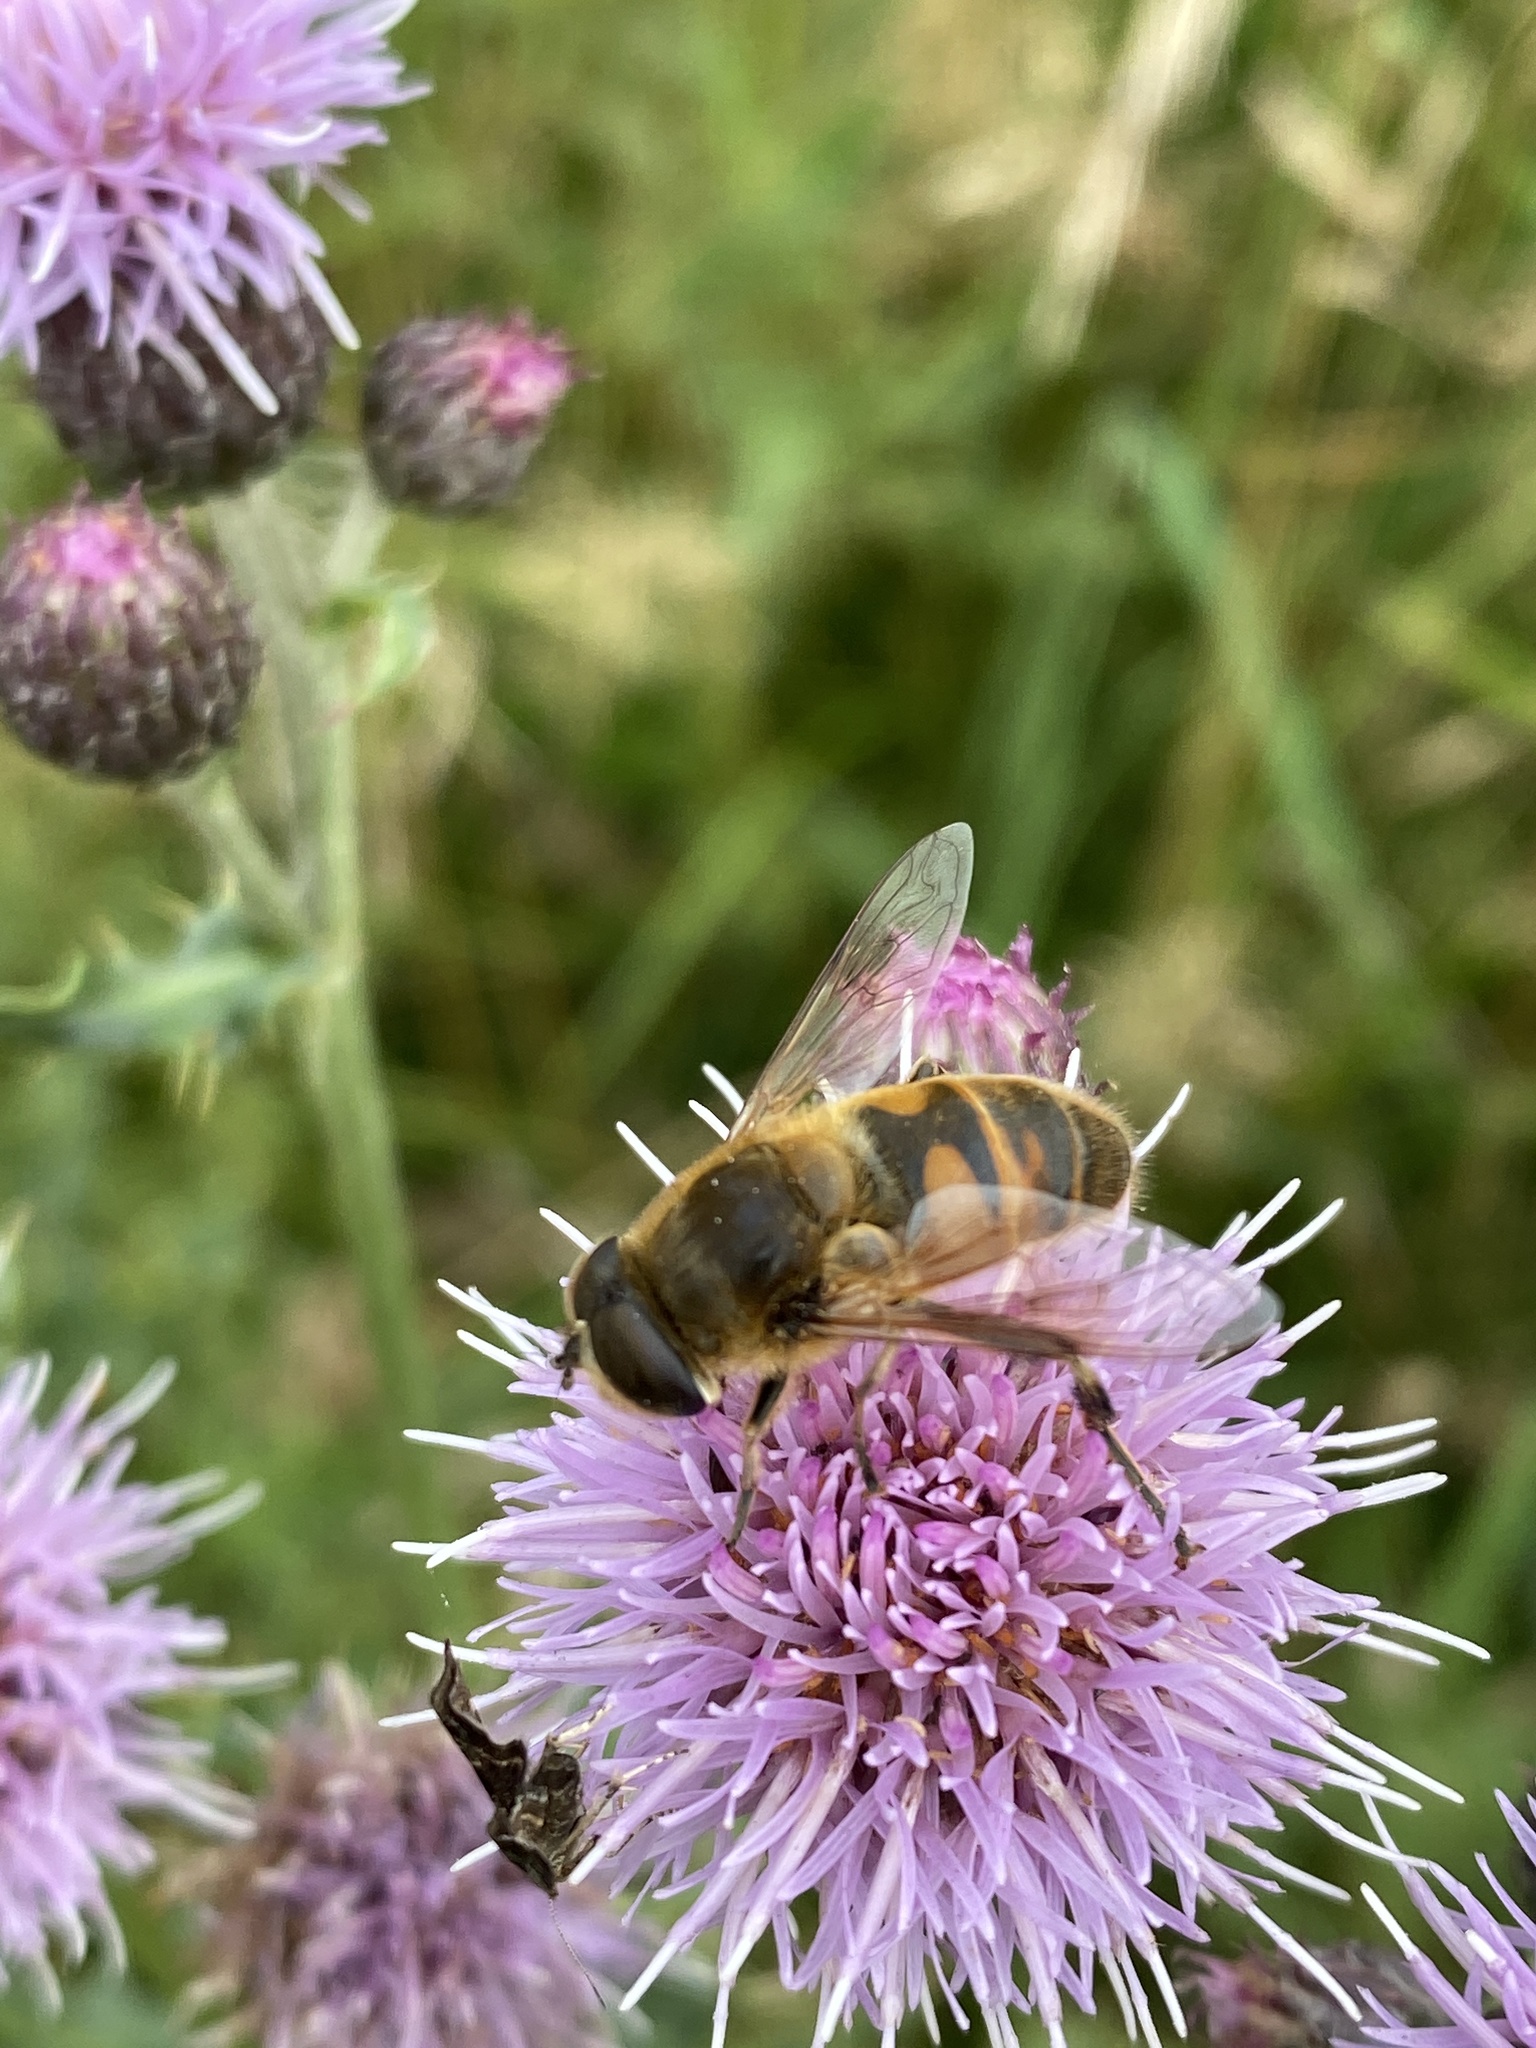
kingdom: Animalia
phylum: Arthropoda
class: Insecta
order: Diptera
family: Syrphidae
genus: Eristalis
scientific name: Eristalis tenax
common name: Drone fly
